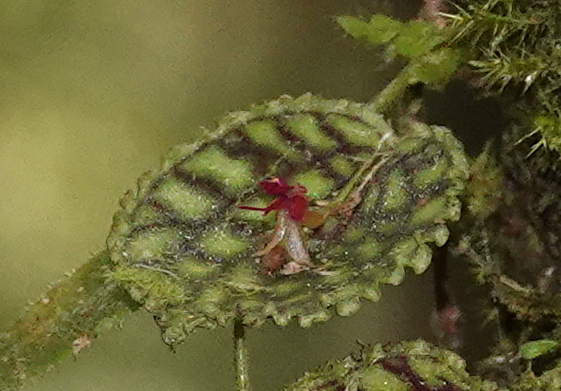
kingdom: Plantae
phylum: Tracheophyta
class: Liliopsida
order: Asparagales
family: Orchidaceae
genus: Lepanthes
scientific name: Lepanthes calodictyon
